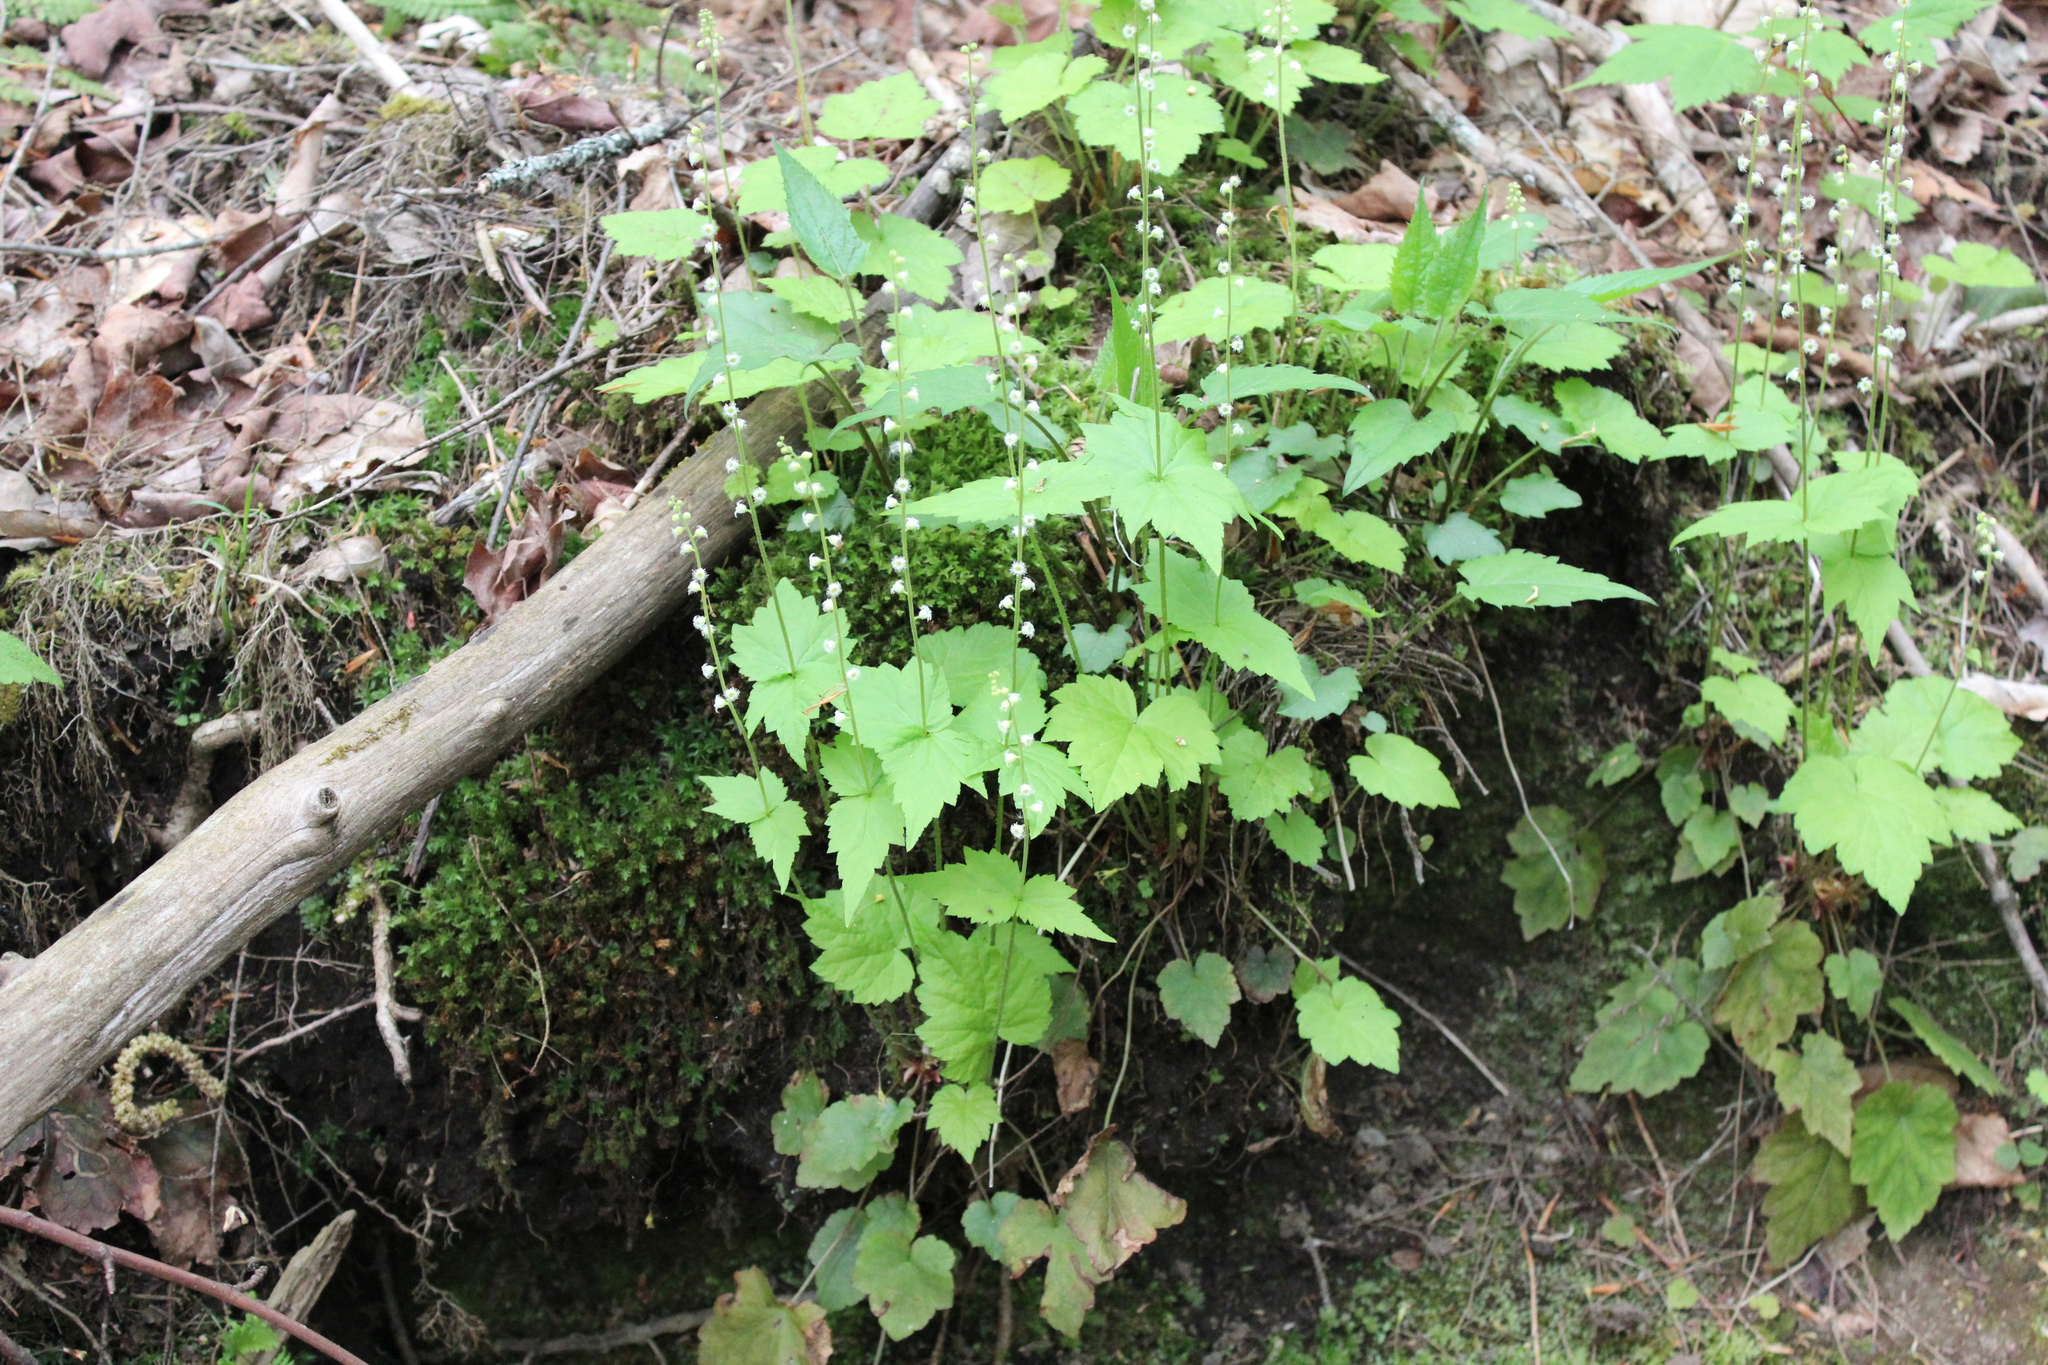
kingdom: Plantae
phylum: Tracheophyta
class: Magnoliopsida
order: Saxifragales
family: Saxifragaceae
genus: Mitella
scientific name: Mitella diphylla
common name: Coolwort
